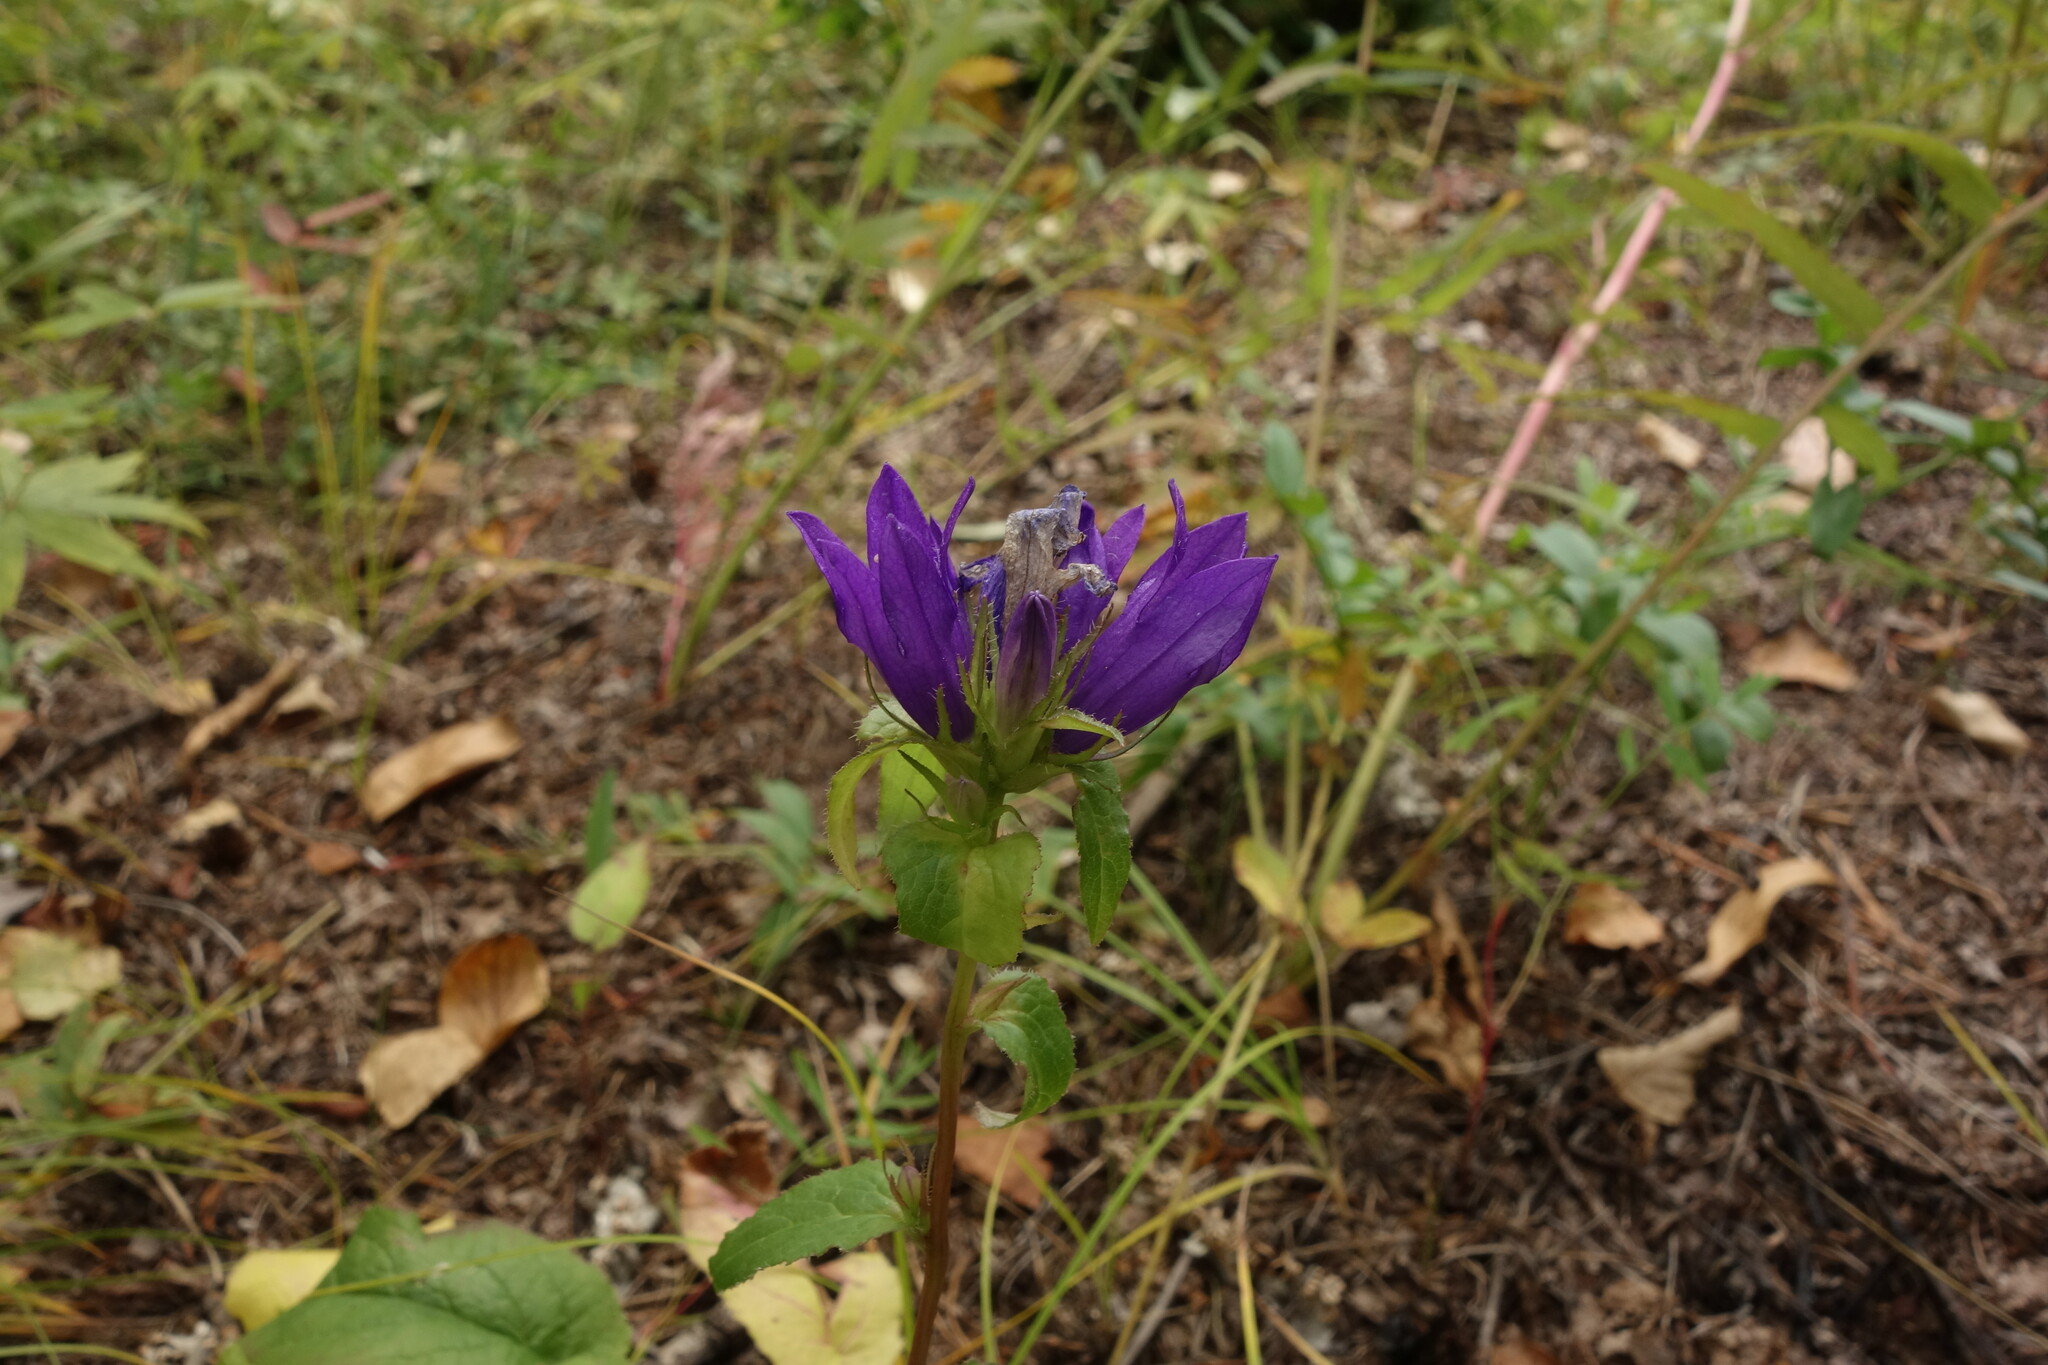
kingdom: Plantae
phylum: Tracheophyta
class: Magnoliopsida
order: Asterales
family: Campanulaceae
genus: Campanula
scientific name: Campanula glomerata
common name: Clustered bellflower
